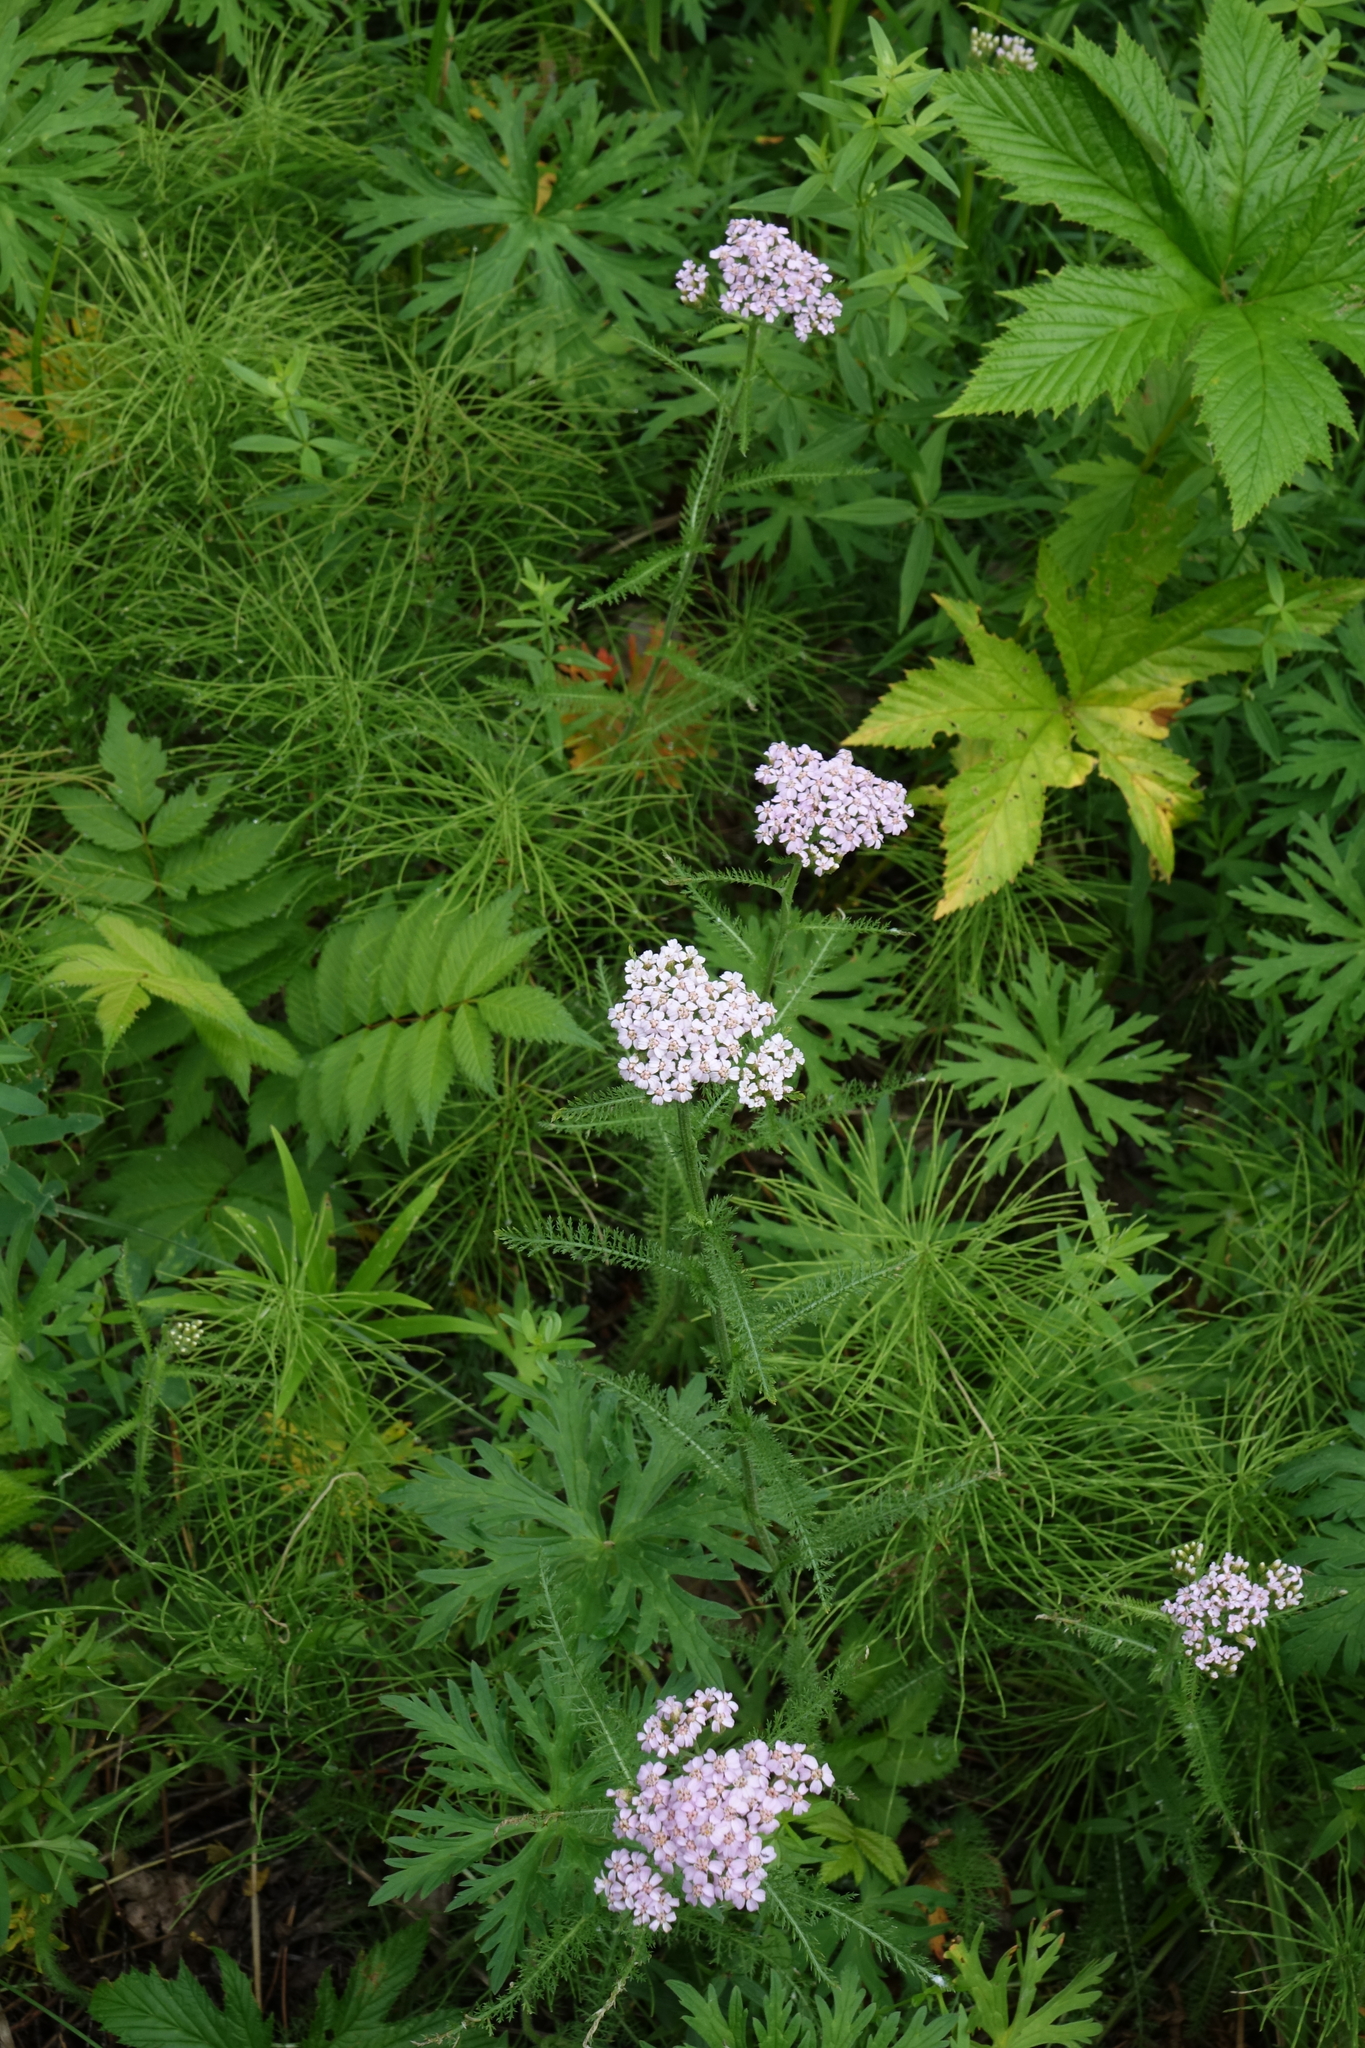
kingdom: Plantae
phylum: Tracheophyta
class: Magnoliopsida
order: Asterales
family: Asteraceae
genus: Achillea
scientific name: Achillea millefolium
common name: Yarrow
